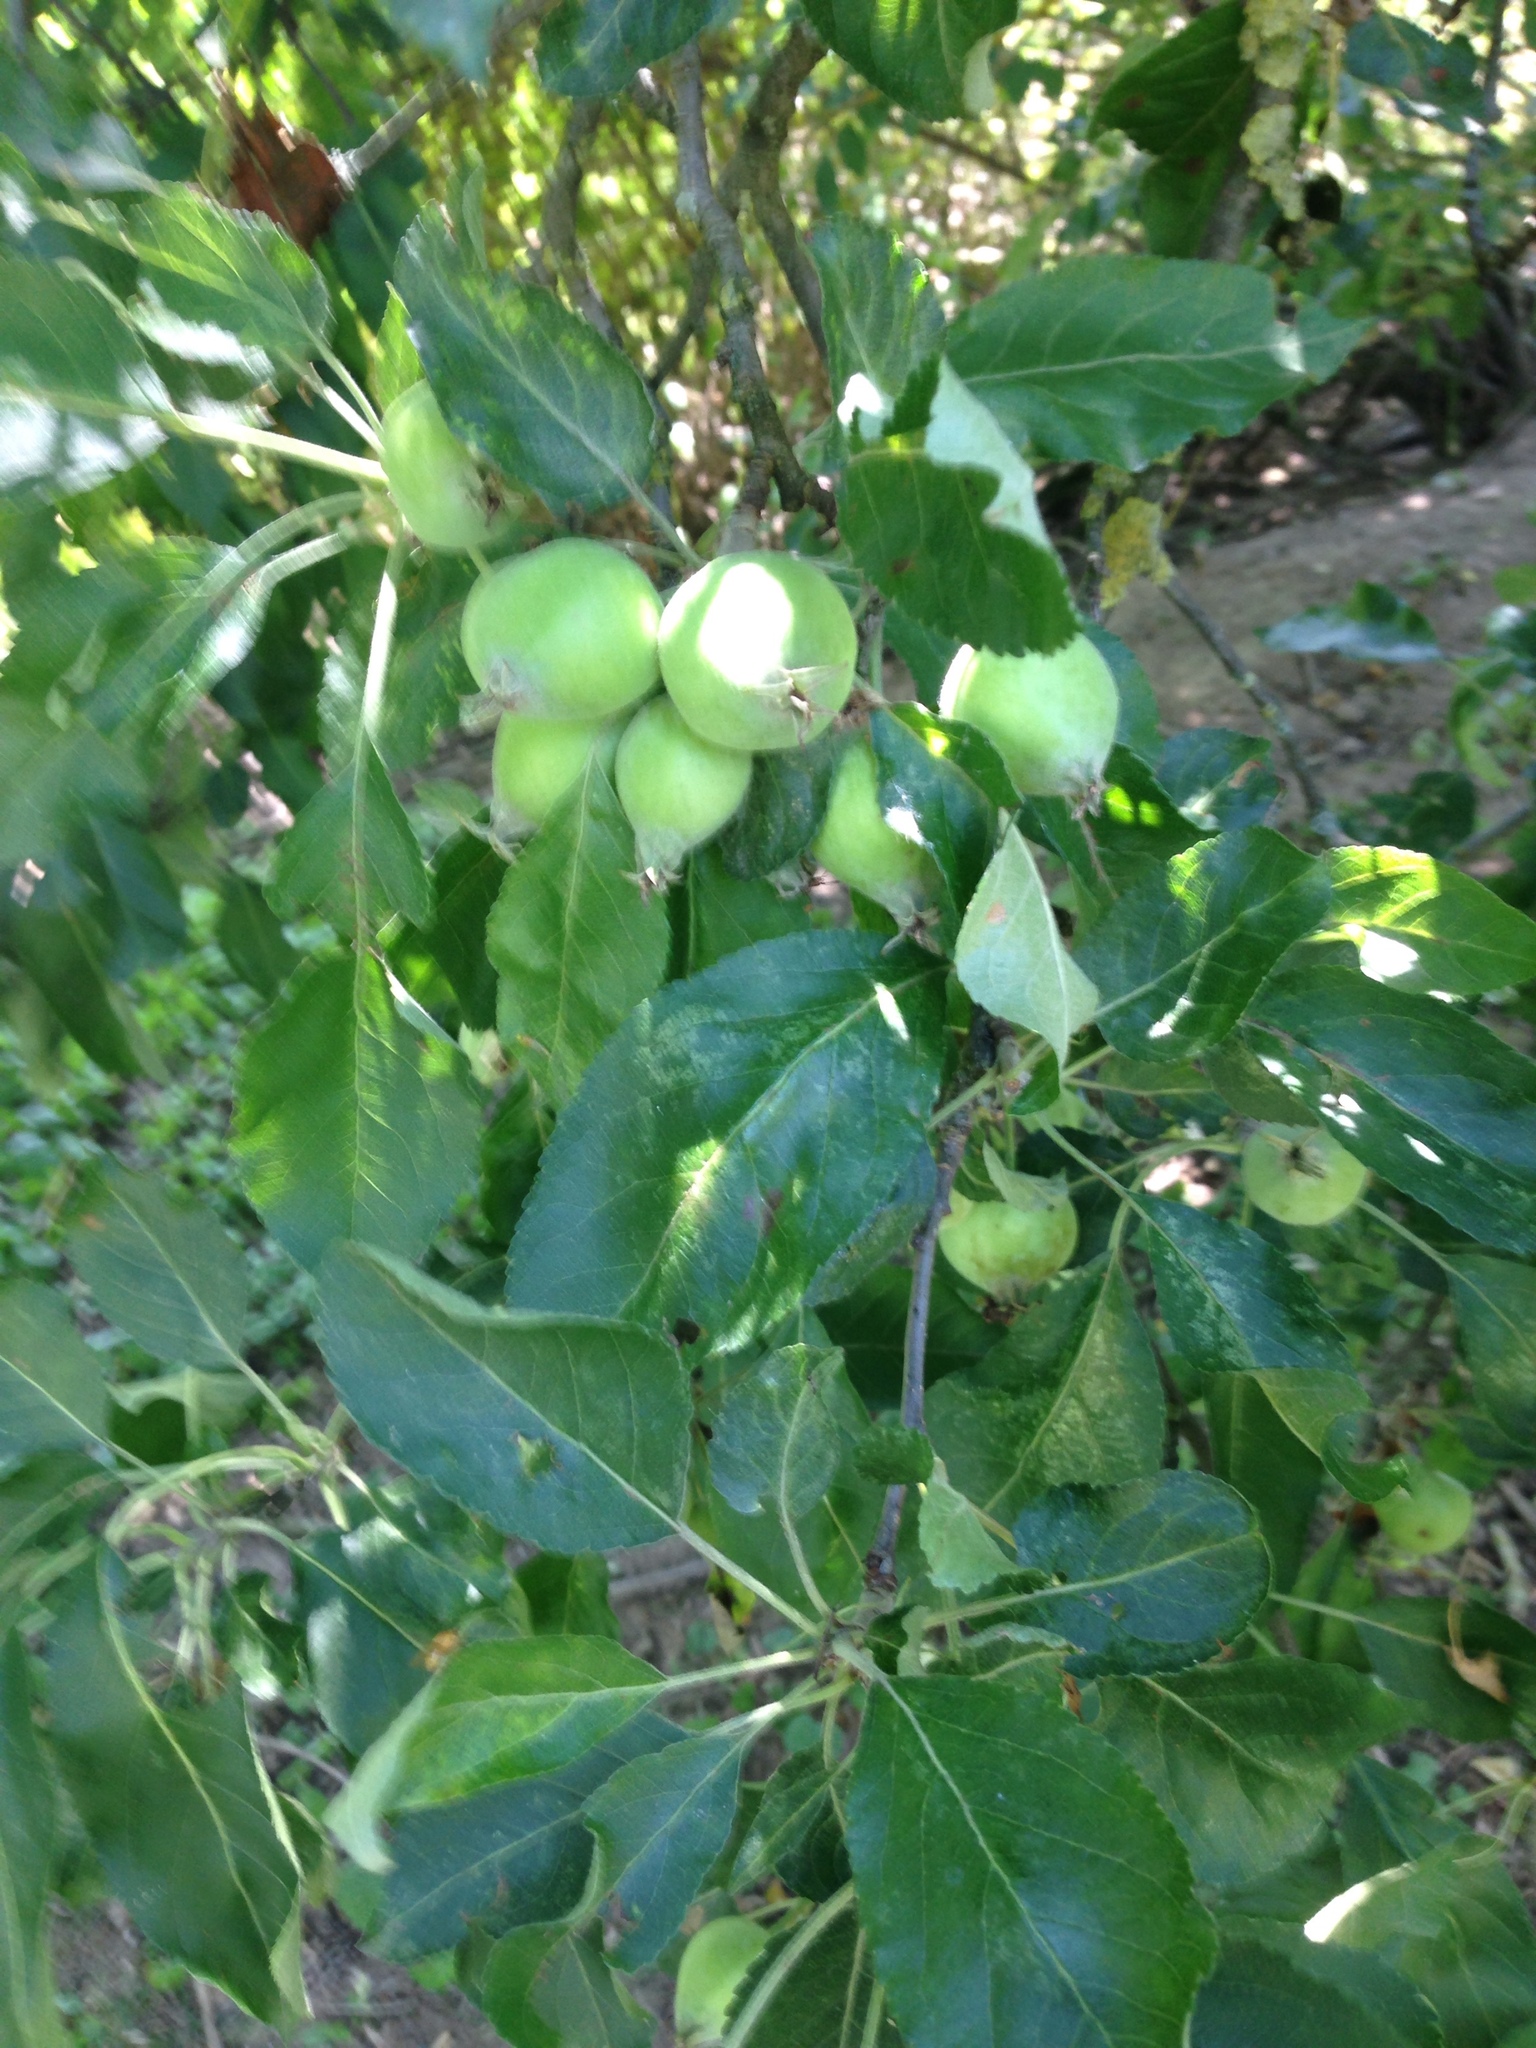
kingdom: Plantae
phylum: Tracheophyta
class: Magnoliopsida
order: Rosales
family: Rosaceae
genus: Malus
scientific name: Malus domestica
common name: Apple
